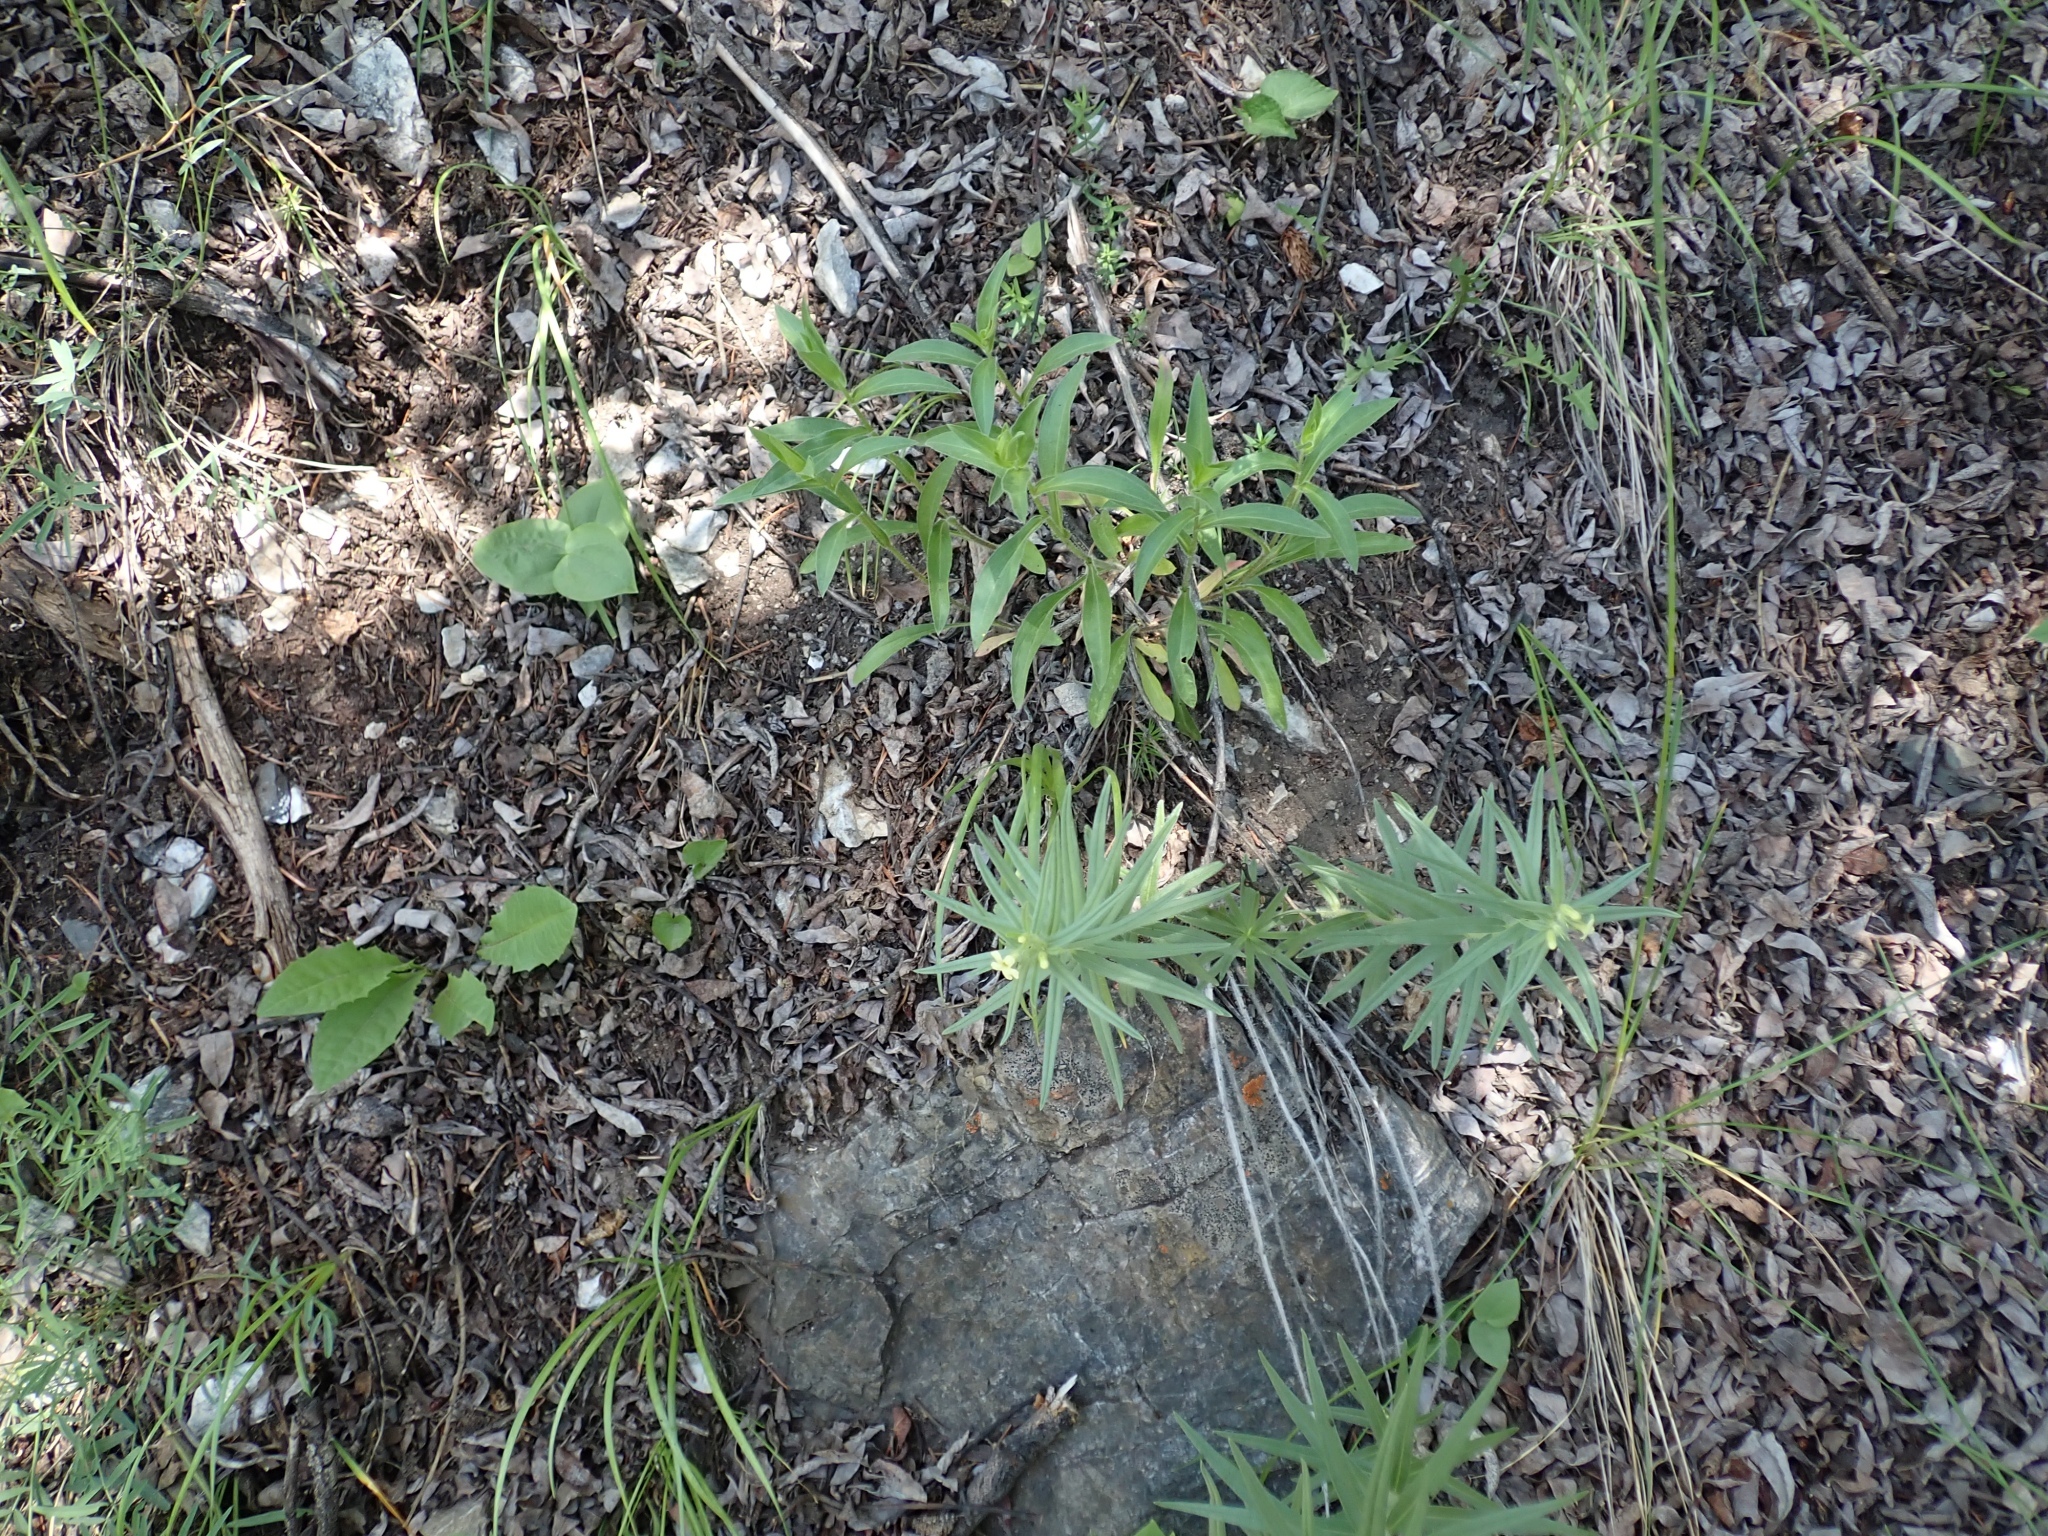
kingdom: Plantae
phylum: Tracheophyta
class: Magnoliopsida
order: Boraginales
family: Boraginaceae
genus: Lithospermum
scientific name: Lithospermum ruderale
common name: Western gromwell
